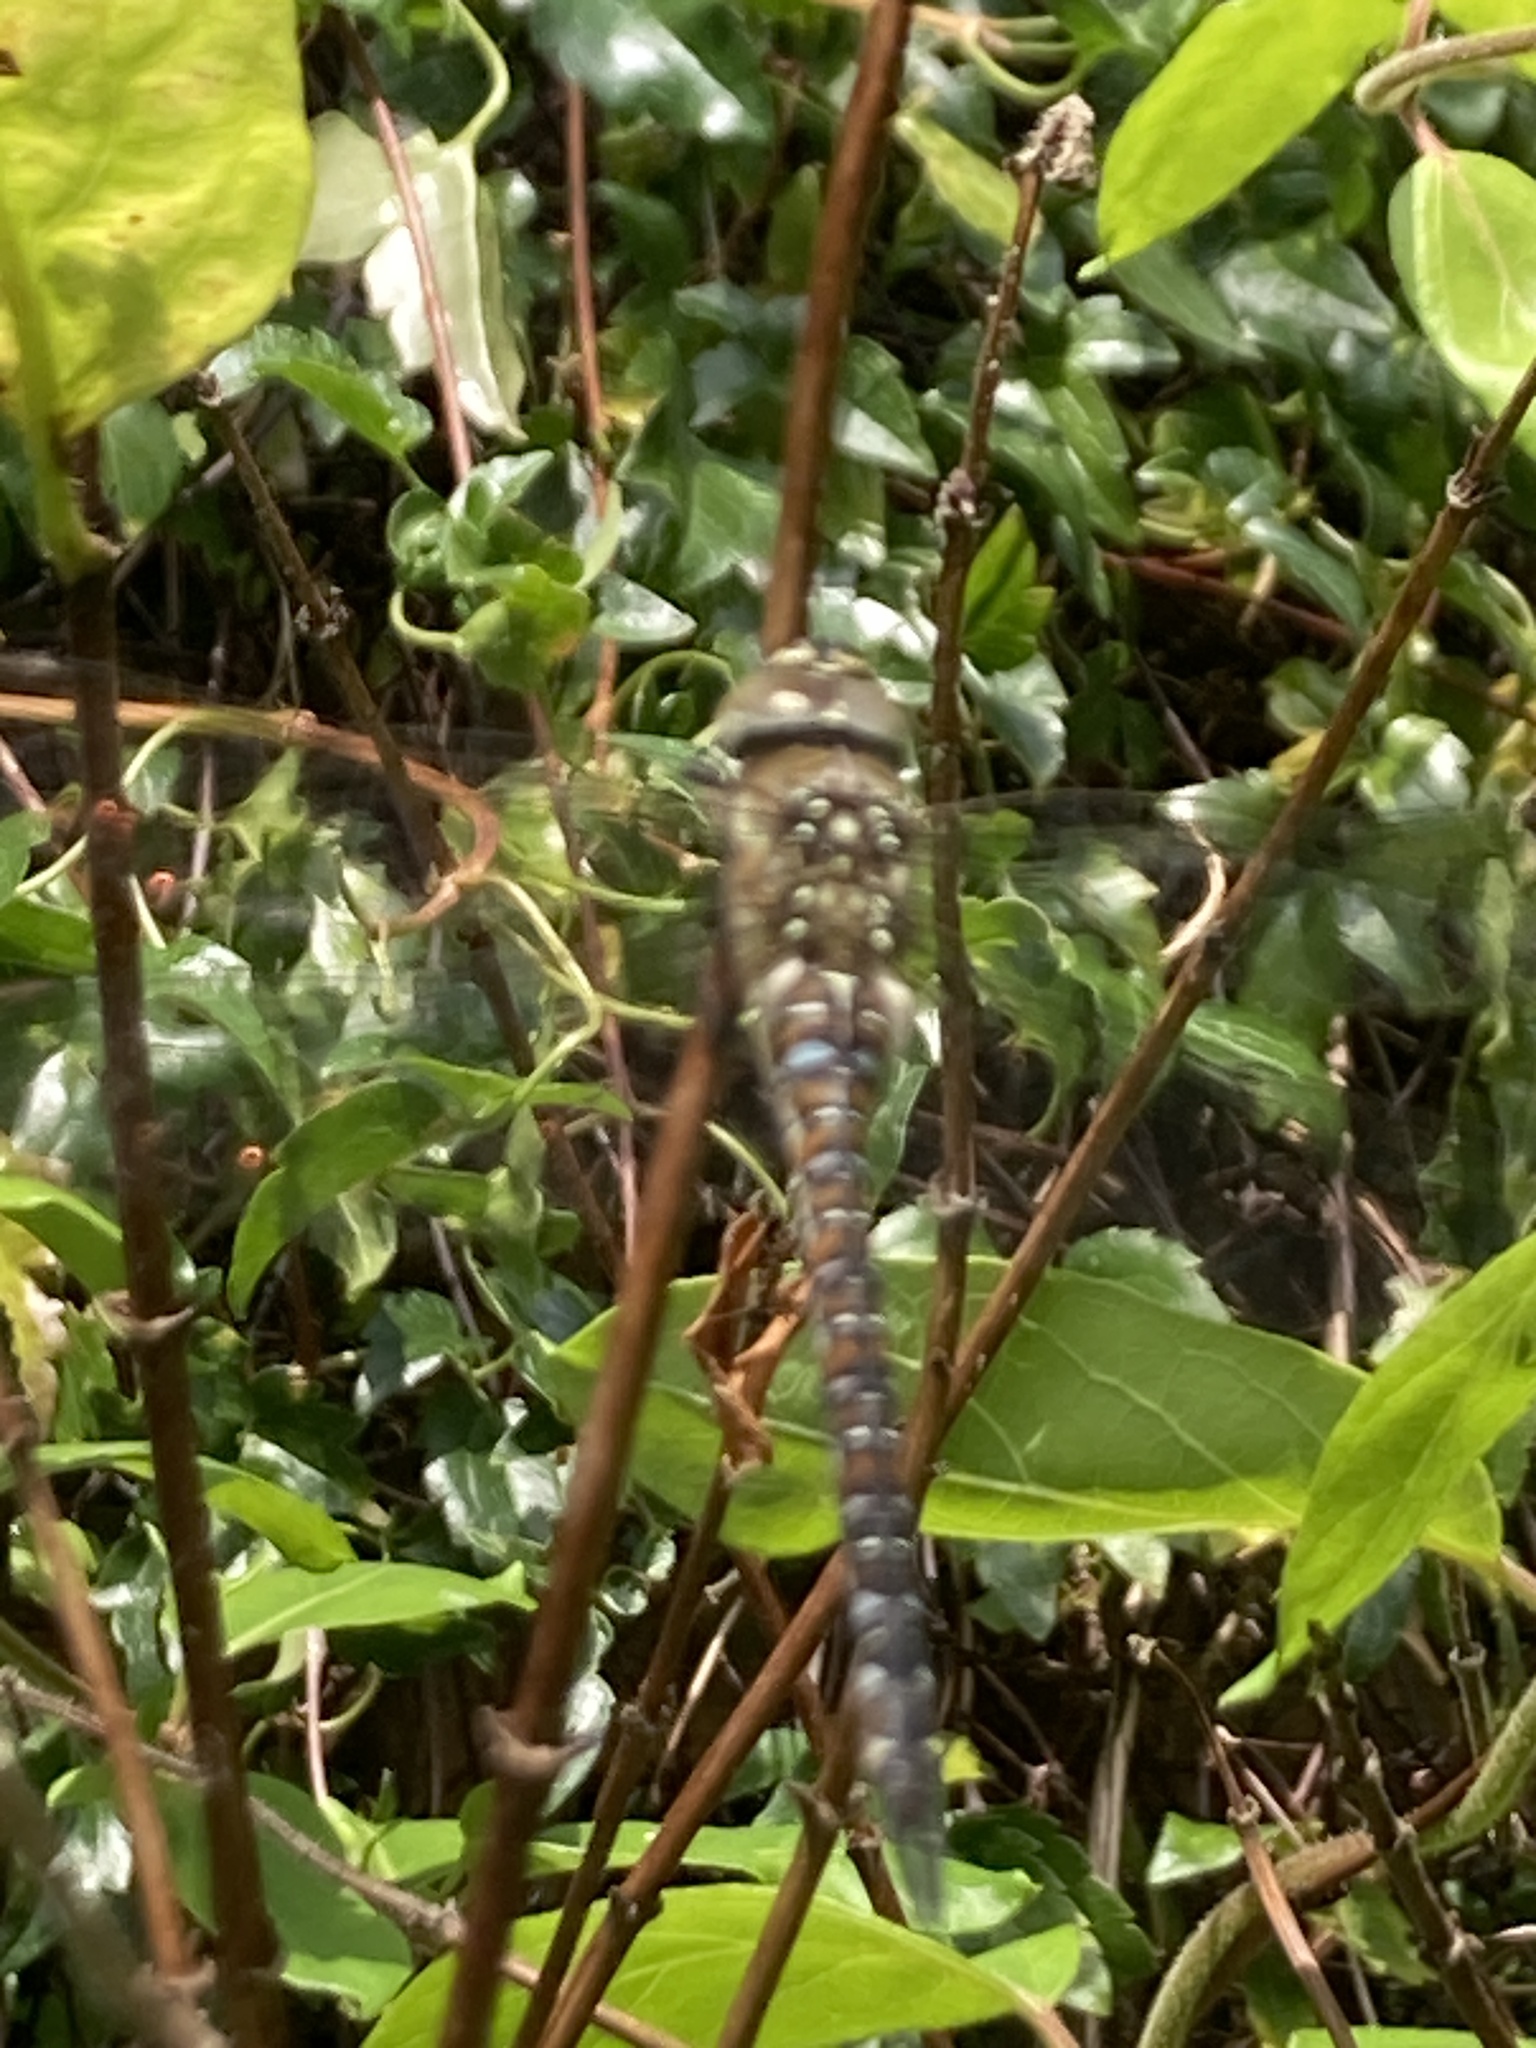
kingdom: Animalia
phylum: Arthropoda
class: Insecta
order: Odonata
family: Aeshnidae
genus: Aeshna
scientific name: Aeshna mixta
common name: Migrant hawker
